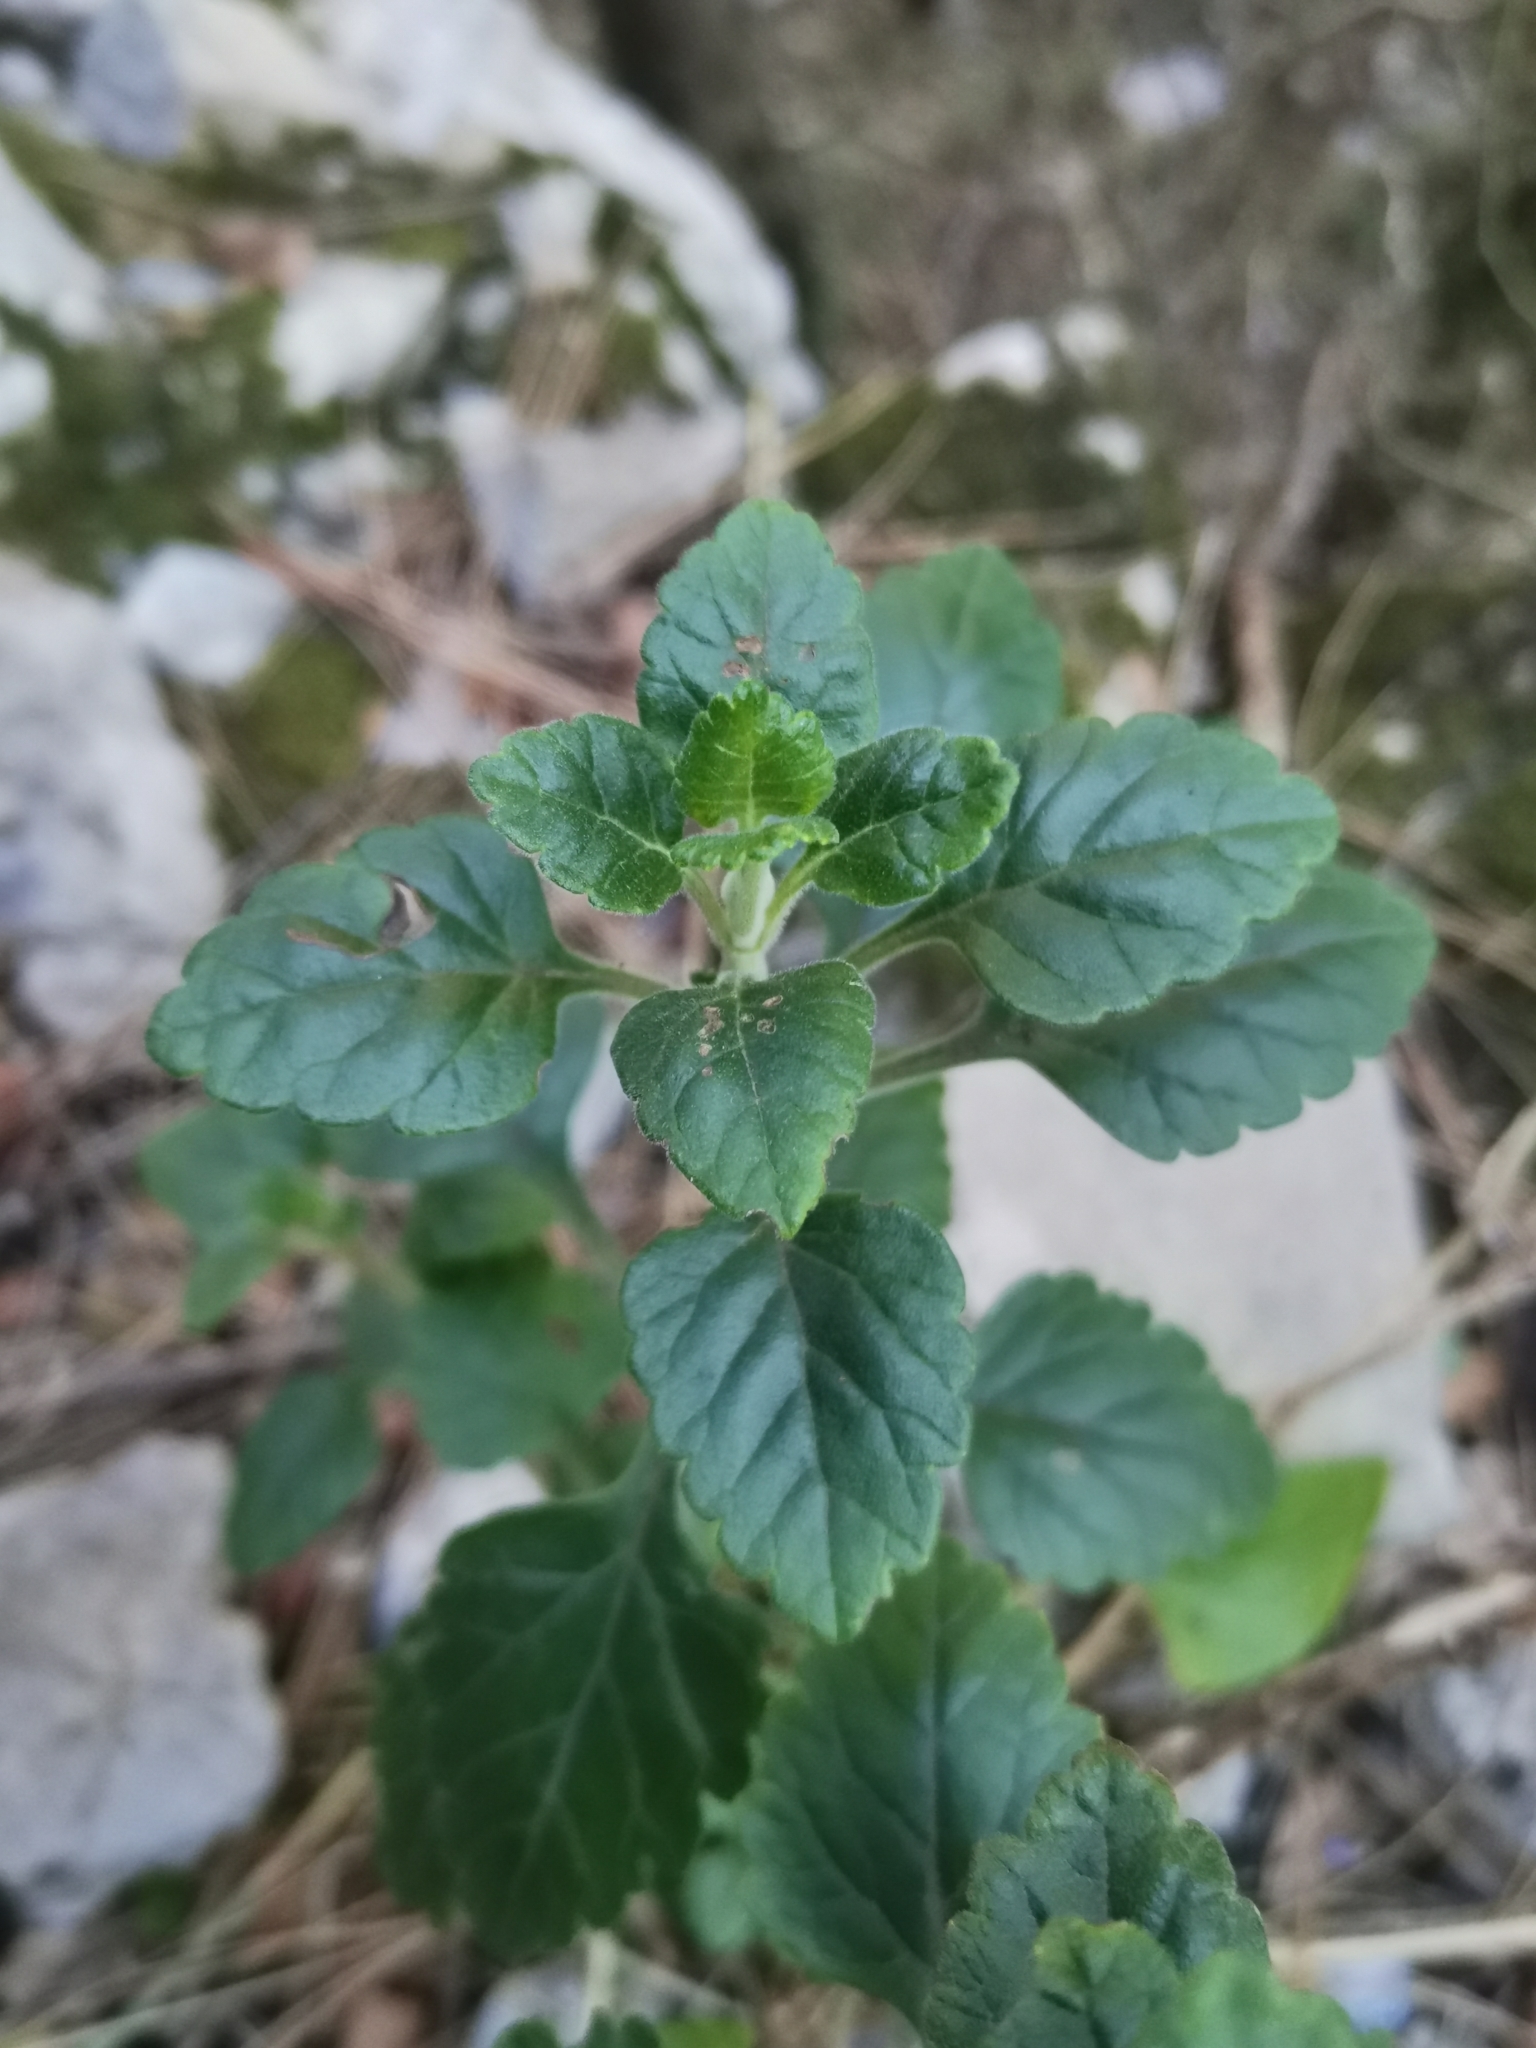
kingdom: Plantae
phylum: Tracheophyta
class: Magnoliopsida
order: Lamiales
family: Lamiaceae
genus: Teucrium
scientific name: Teucrium flavum
